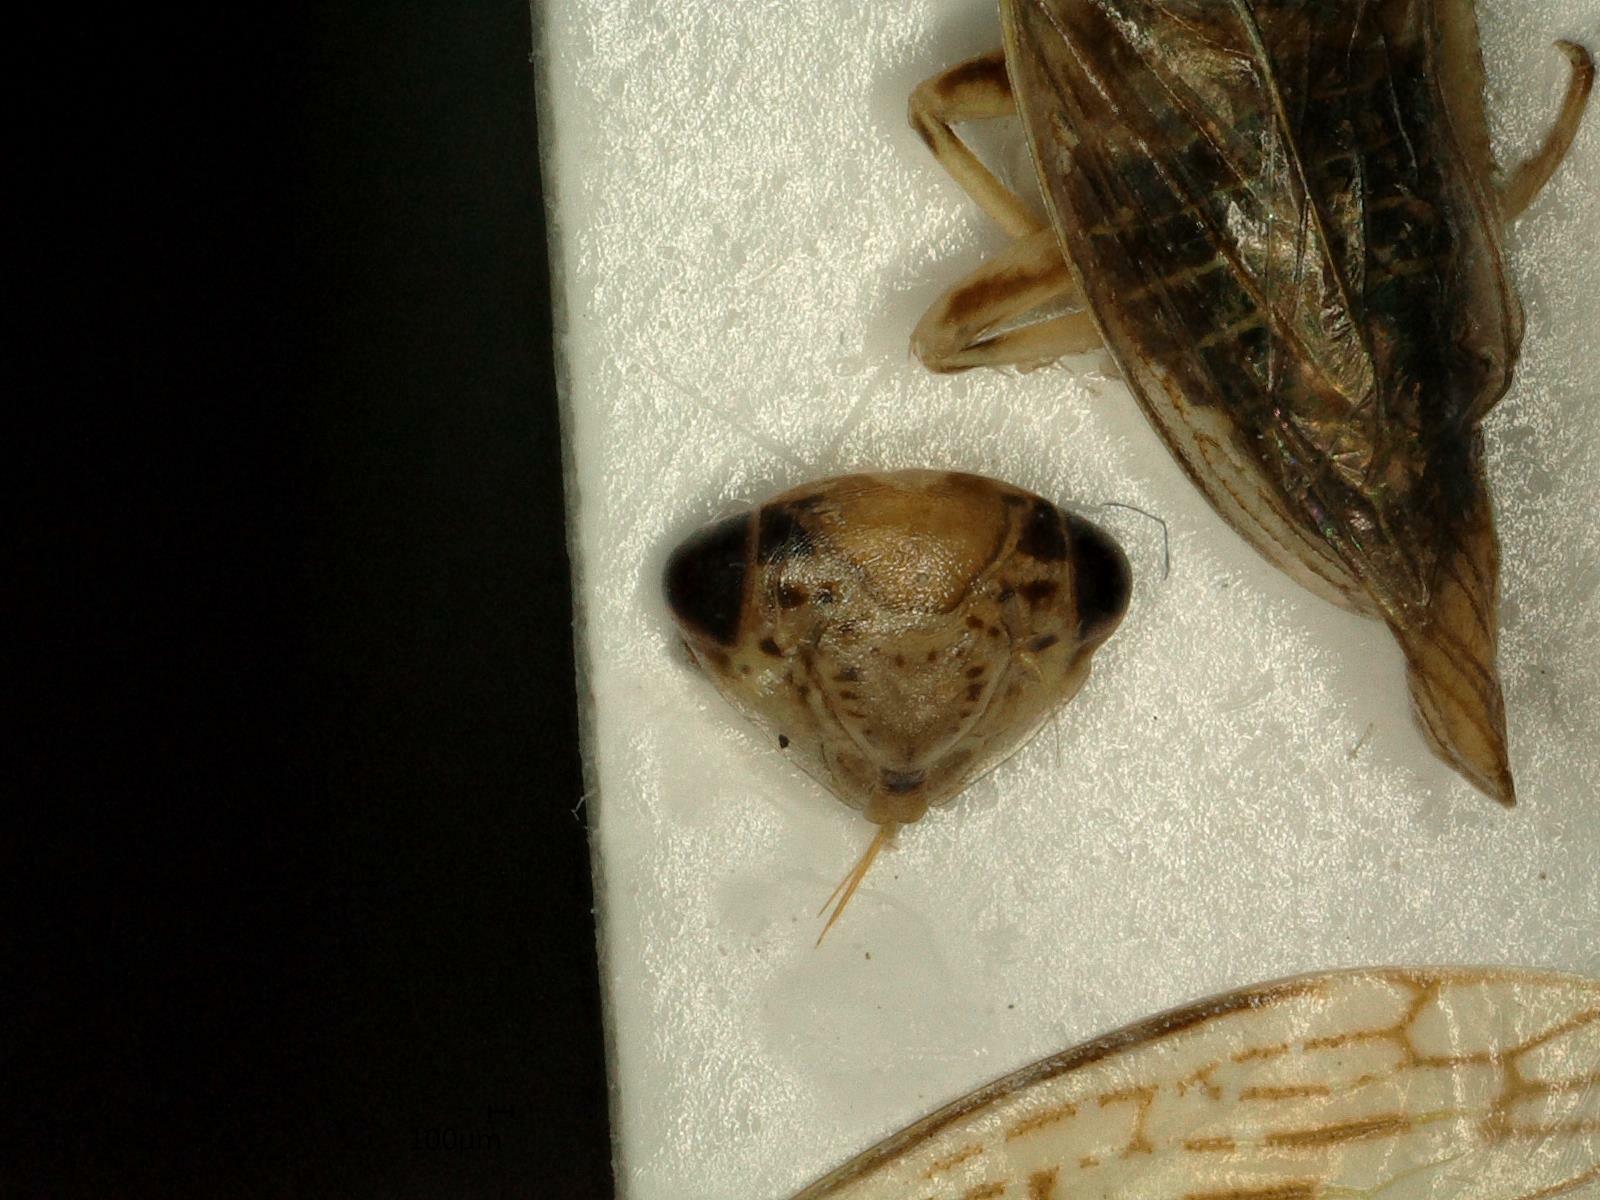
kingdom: Animalia
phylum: Arthropoda
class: Insecta
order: Hemiptera
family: Cicadellidae
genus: Idiocerus
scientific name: Idiocerus herrichii
